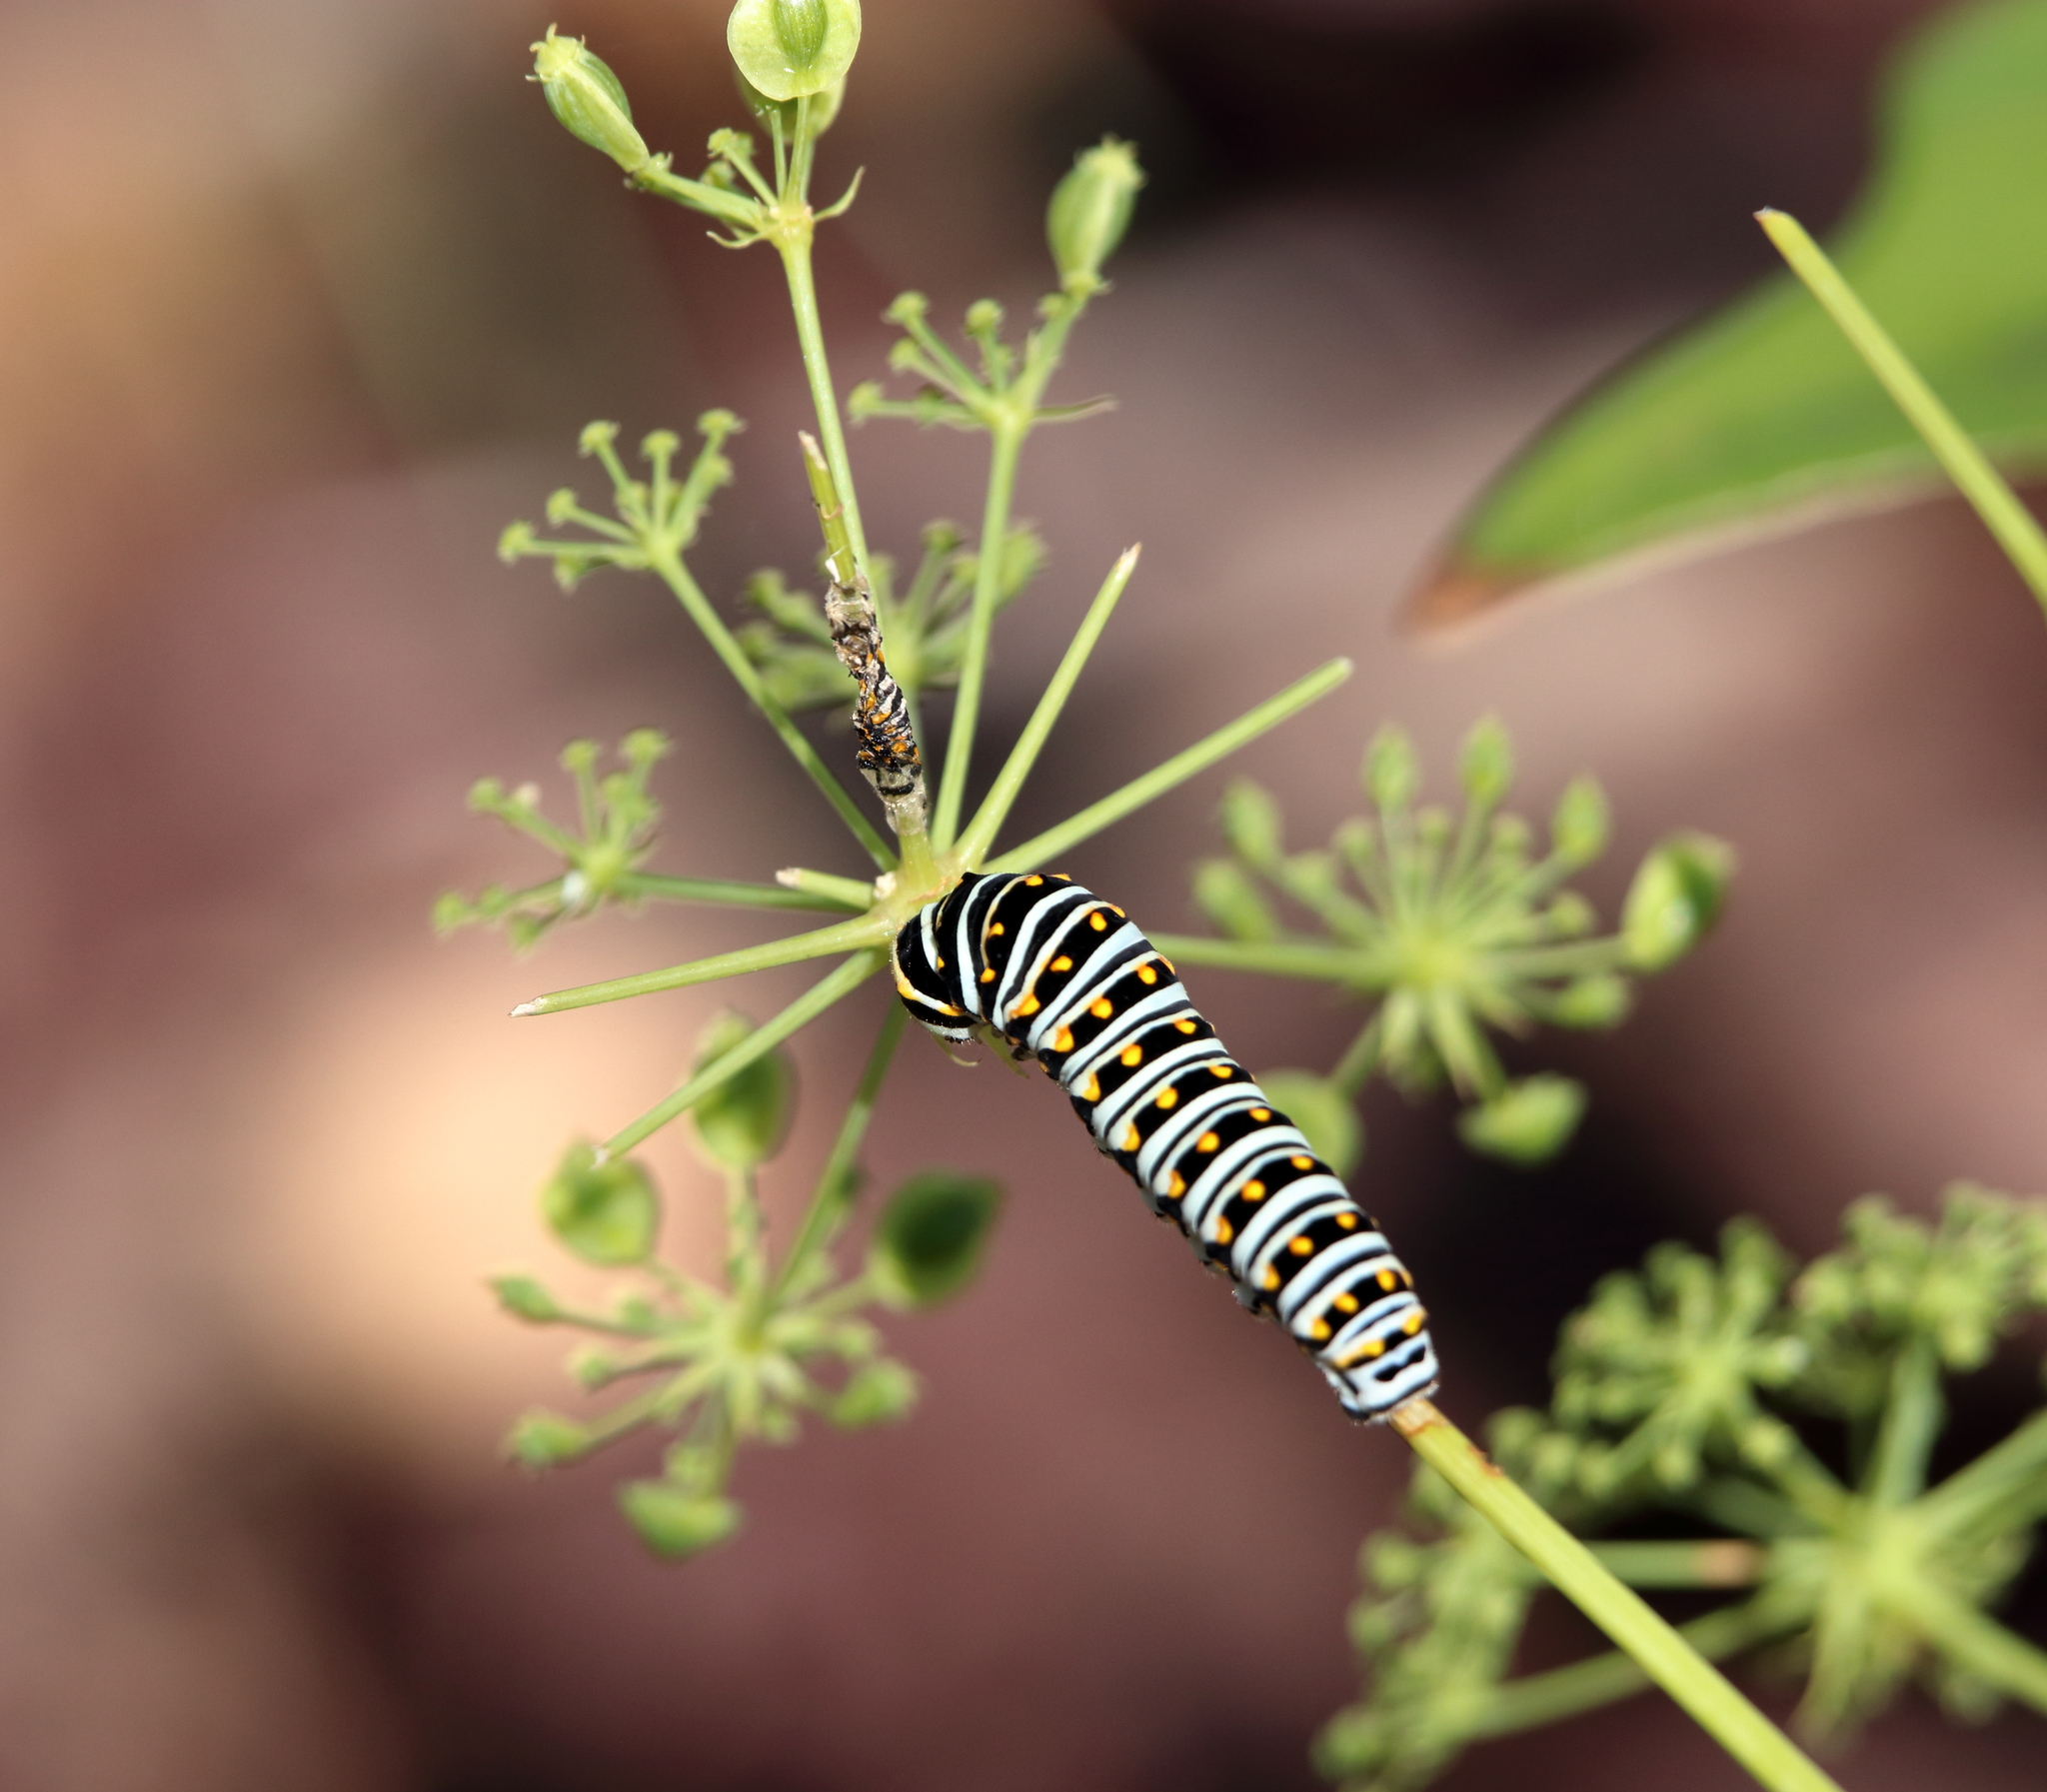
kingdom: Animalia
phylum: Arthropoda
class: Insecta
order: Lepidoptera
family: Papilionidae
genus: Papilio
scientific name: Papilio polyxenes
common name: Black swallowtail
